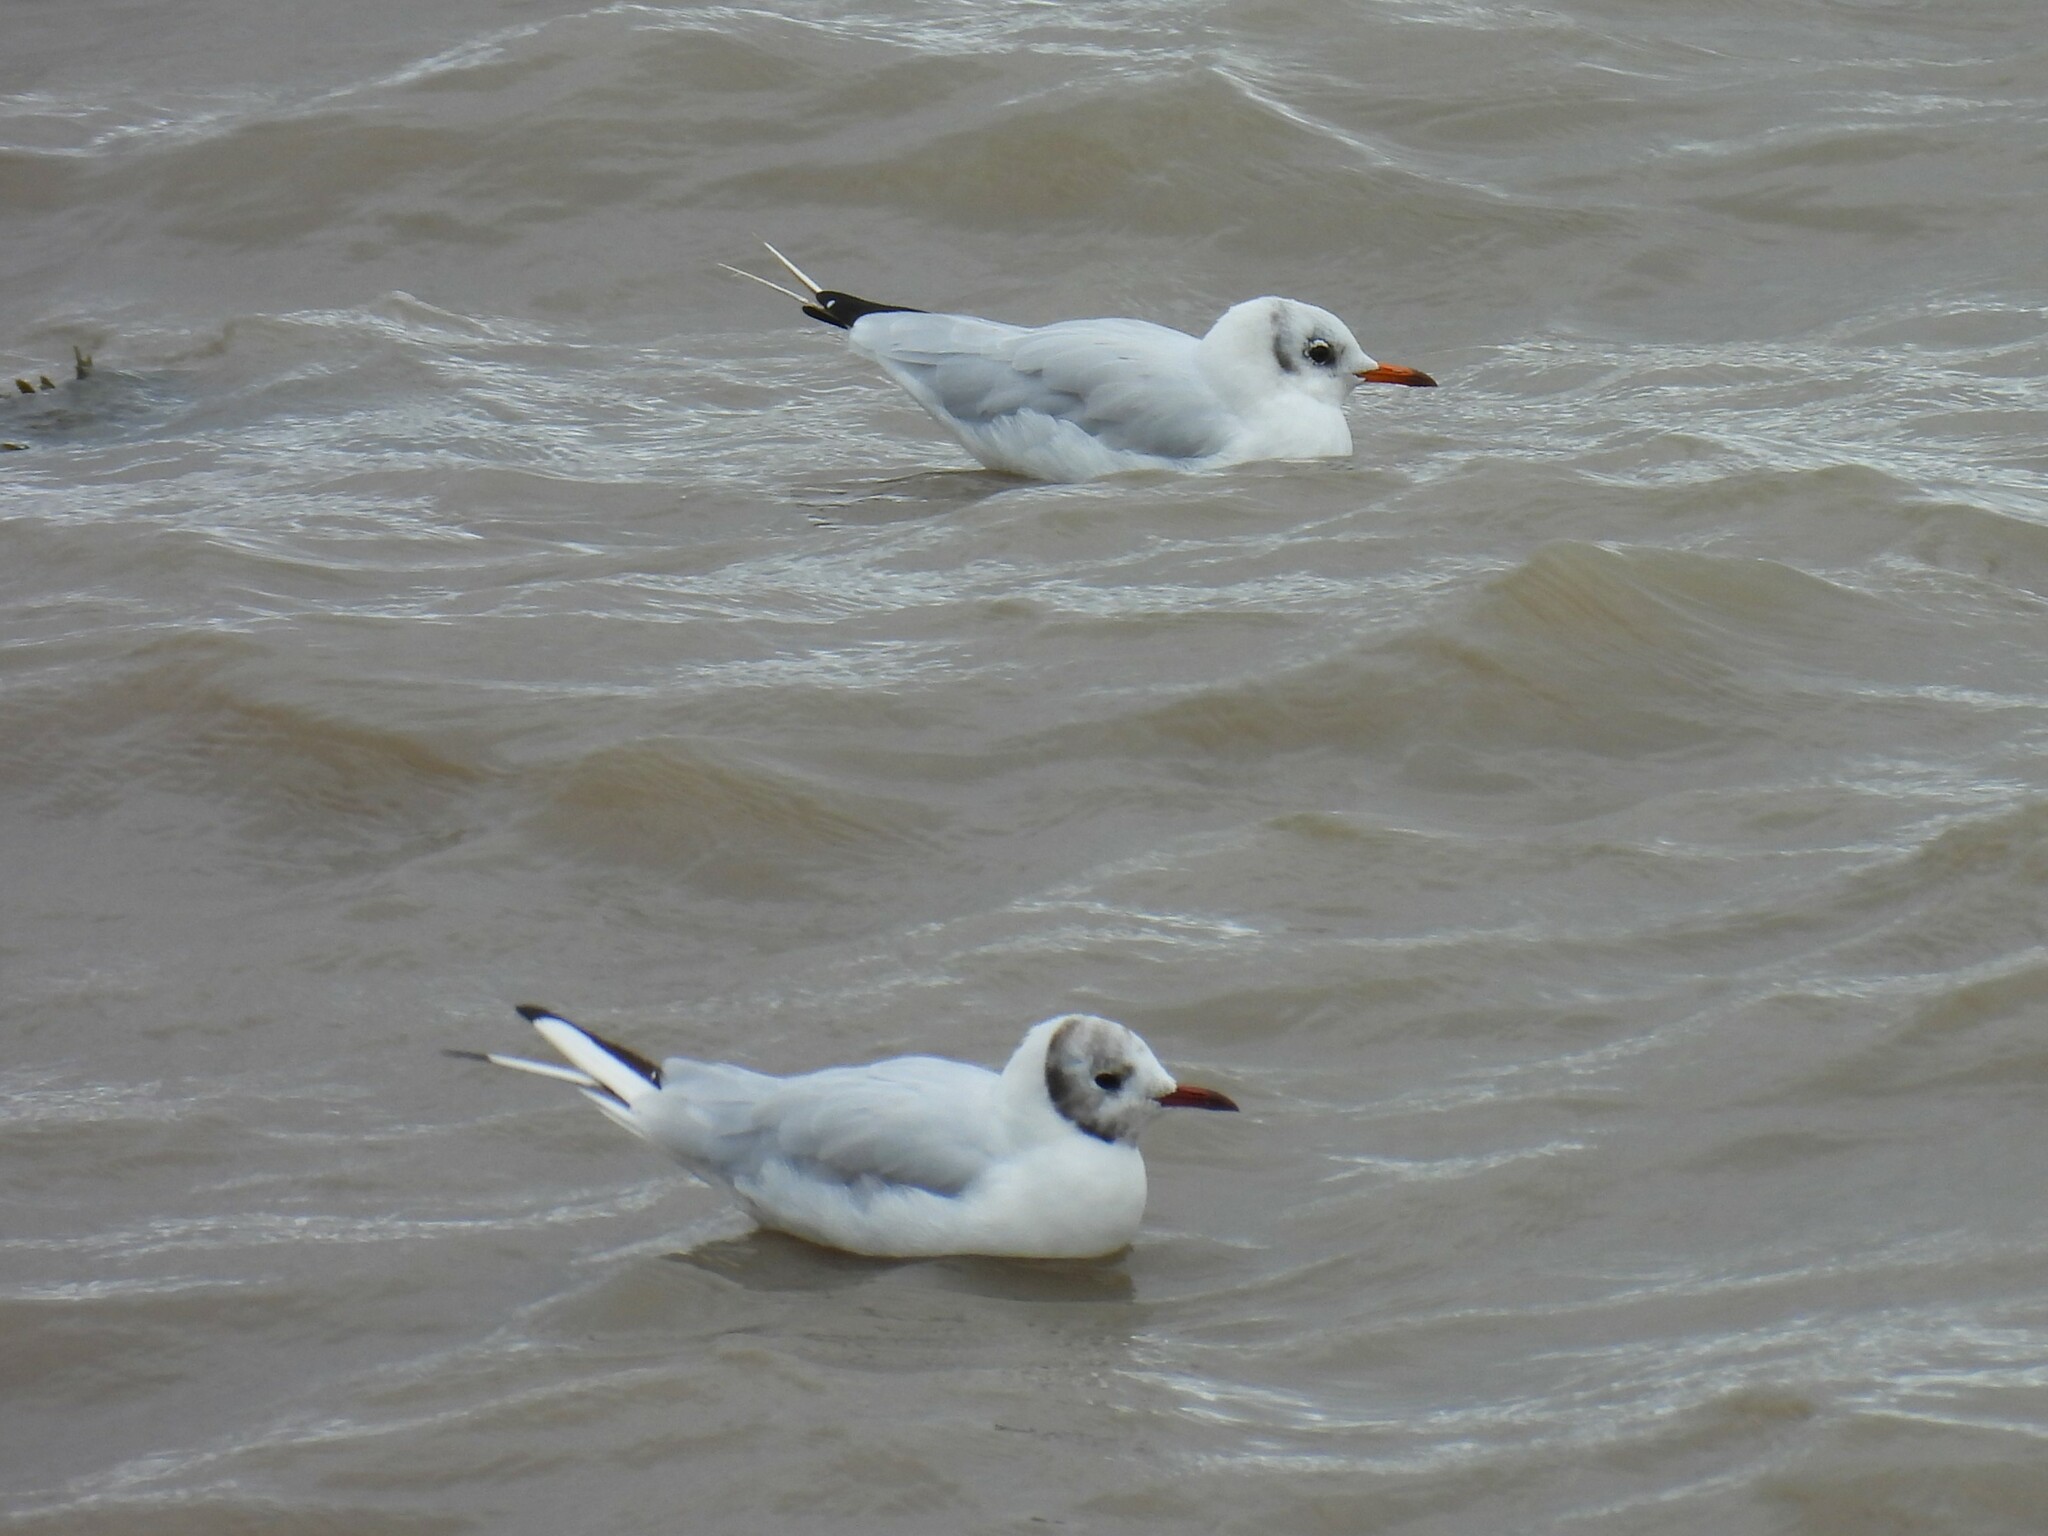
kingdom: Animalia
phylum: Chordata
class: Aves
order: Charadriiformes
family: Laridae
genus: Chroicocephalus
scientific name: Chroicocephalus ridibundus
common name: Black-headed gull
